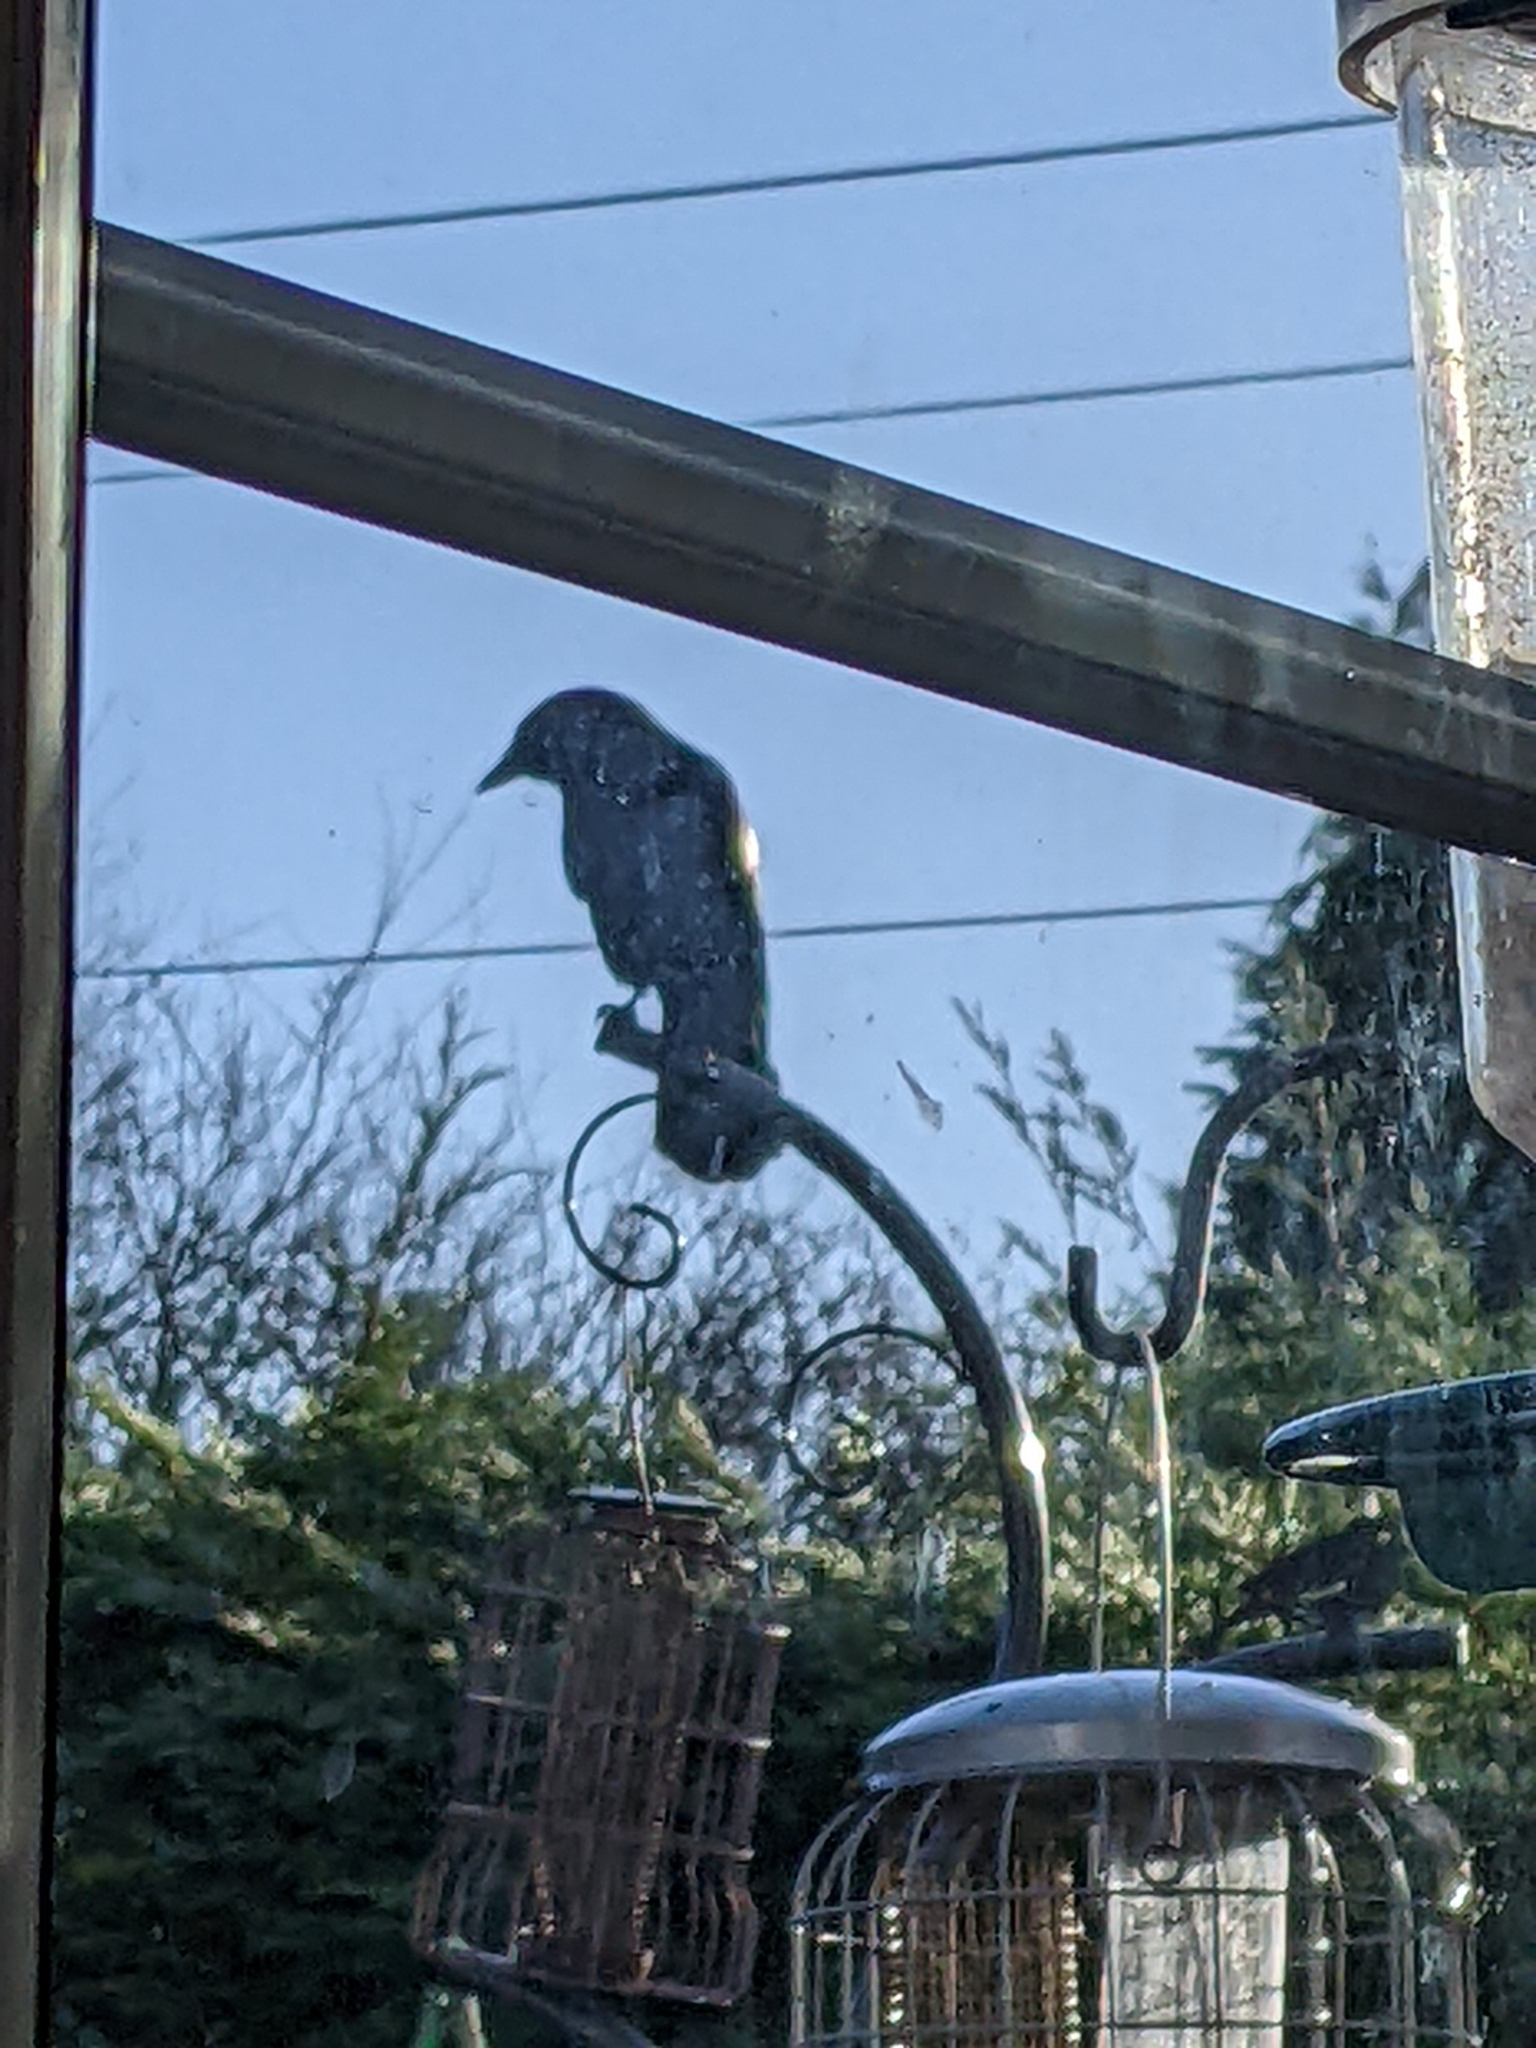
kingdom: Animalia
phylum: Chordata
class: Aves
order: Passeriformes
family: Corvidae
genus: Coloeus
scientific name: Coloeus monedula
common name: Western jackdaw
